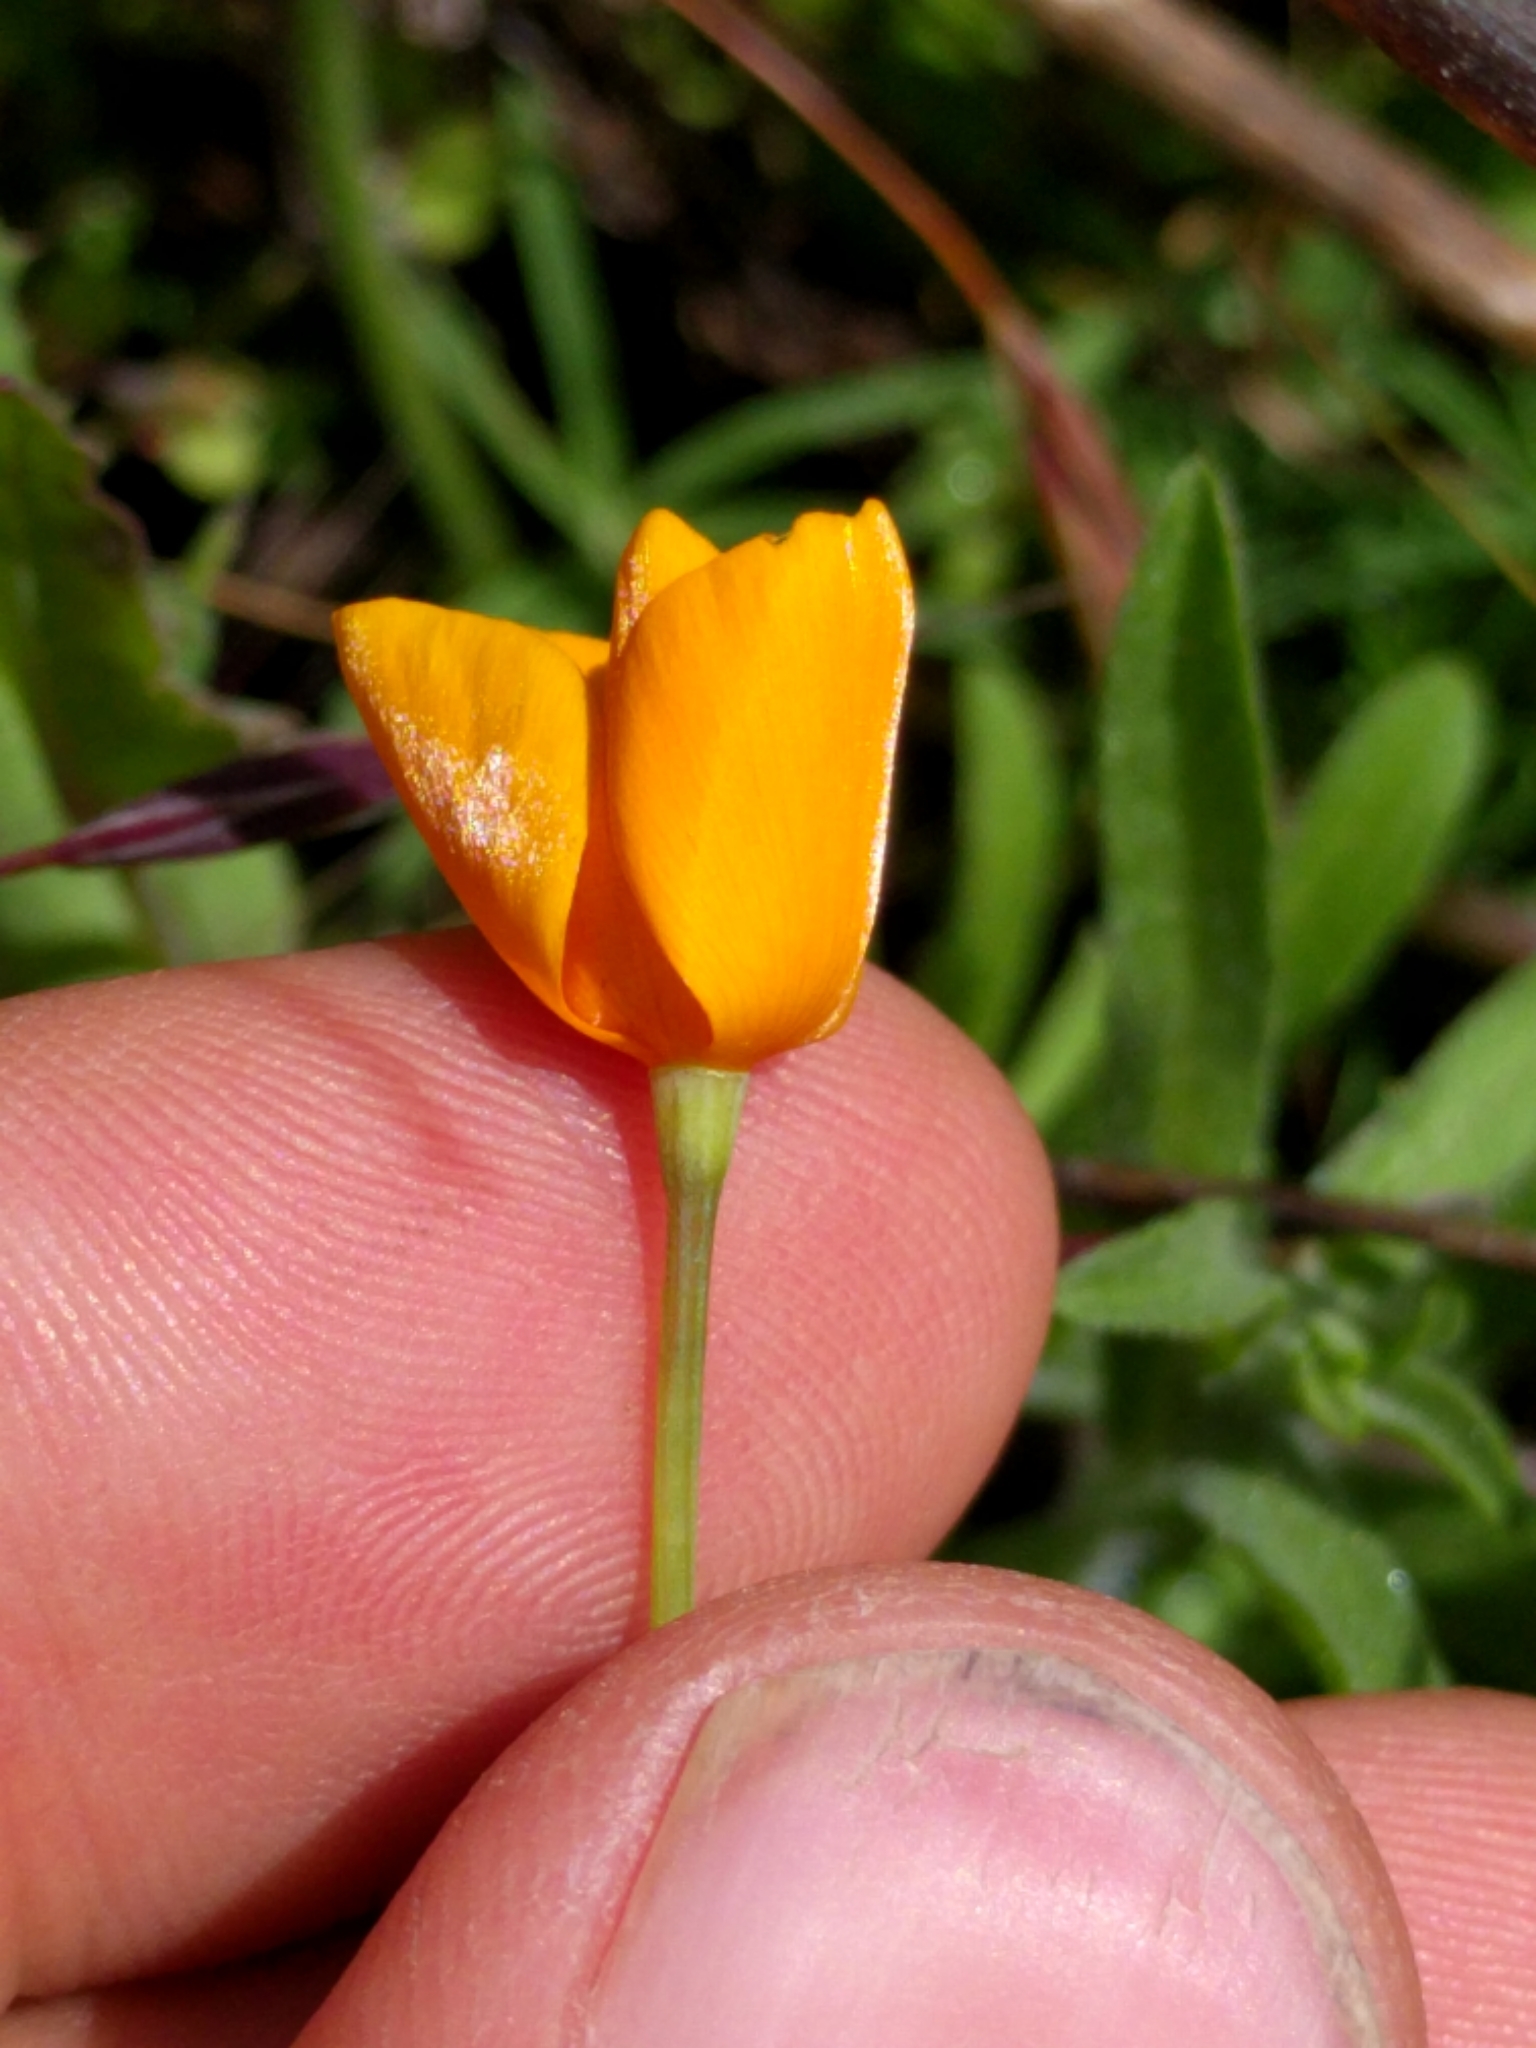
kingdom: Plantae
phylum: Tracheophyta
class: Magnoliopsida
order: Ranunculales
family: Papaveraceae
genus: Eschscholzia
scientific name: Eschscholzia caespitosa
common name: Tufted california-poppy
